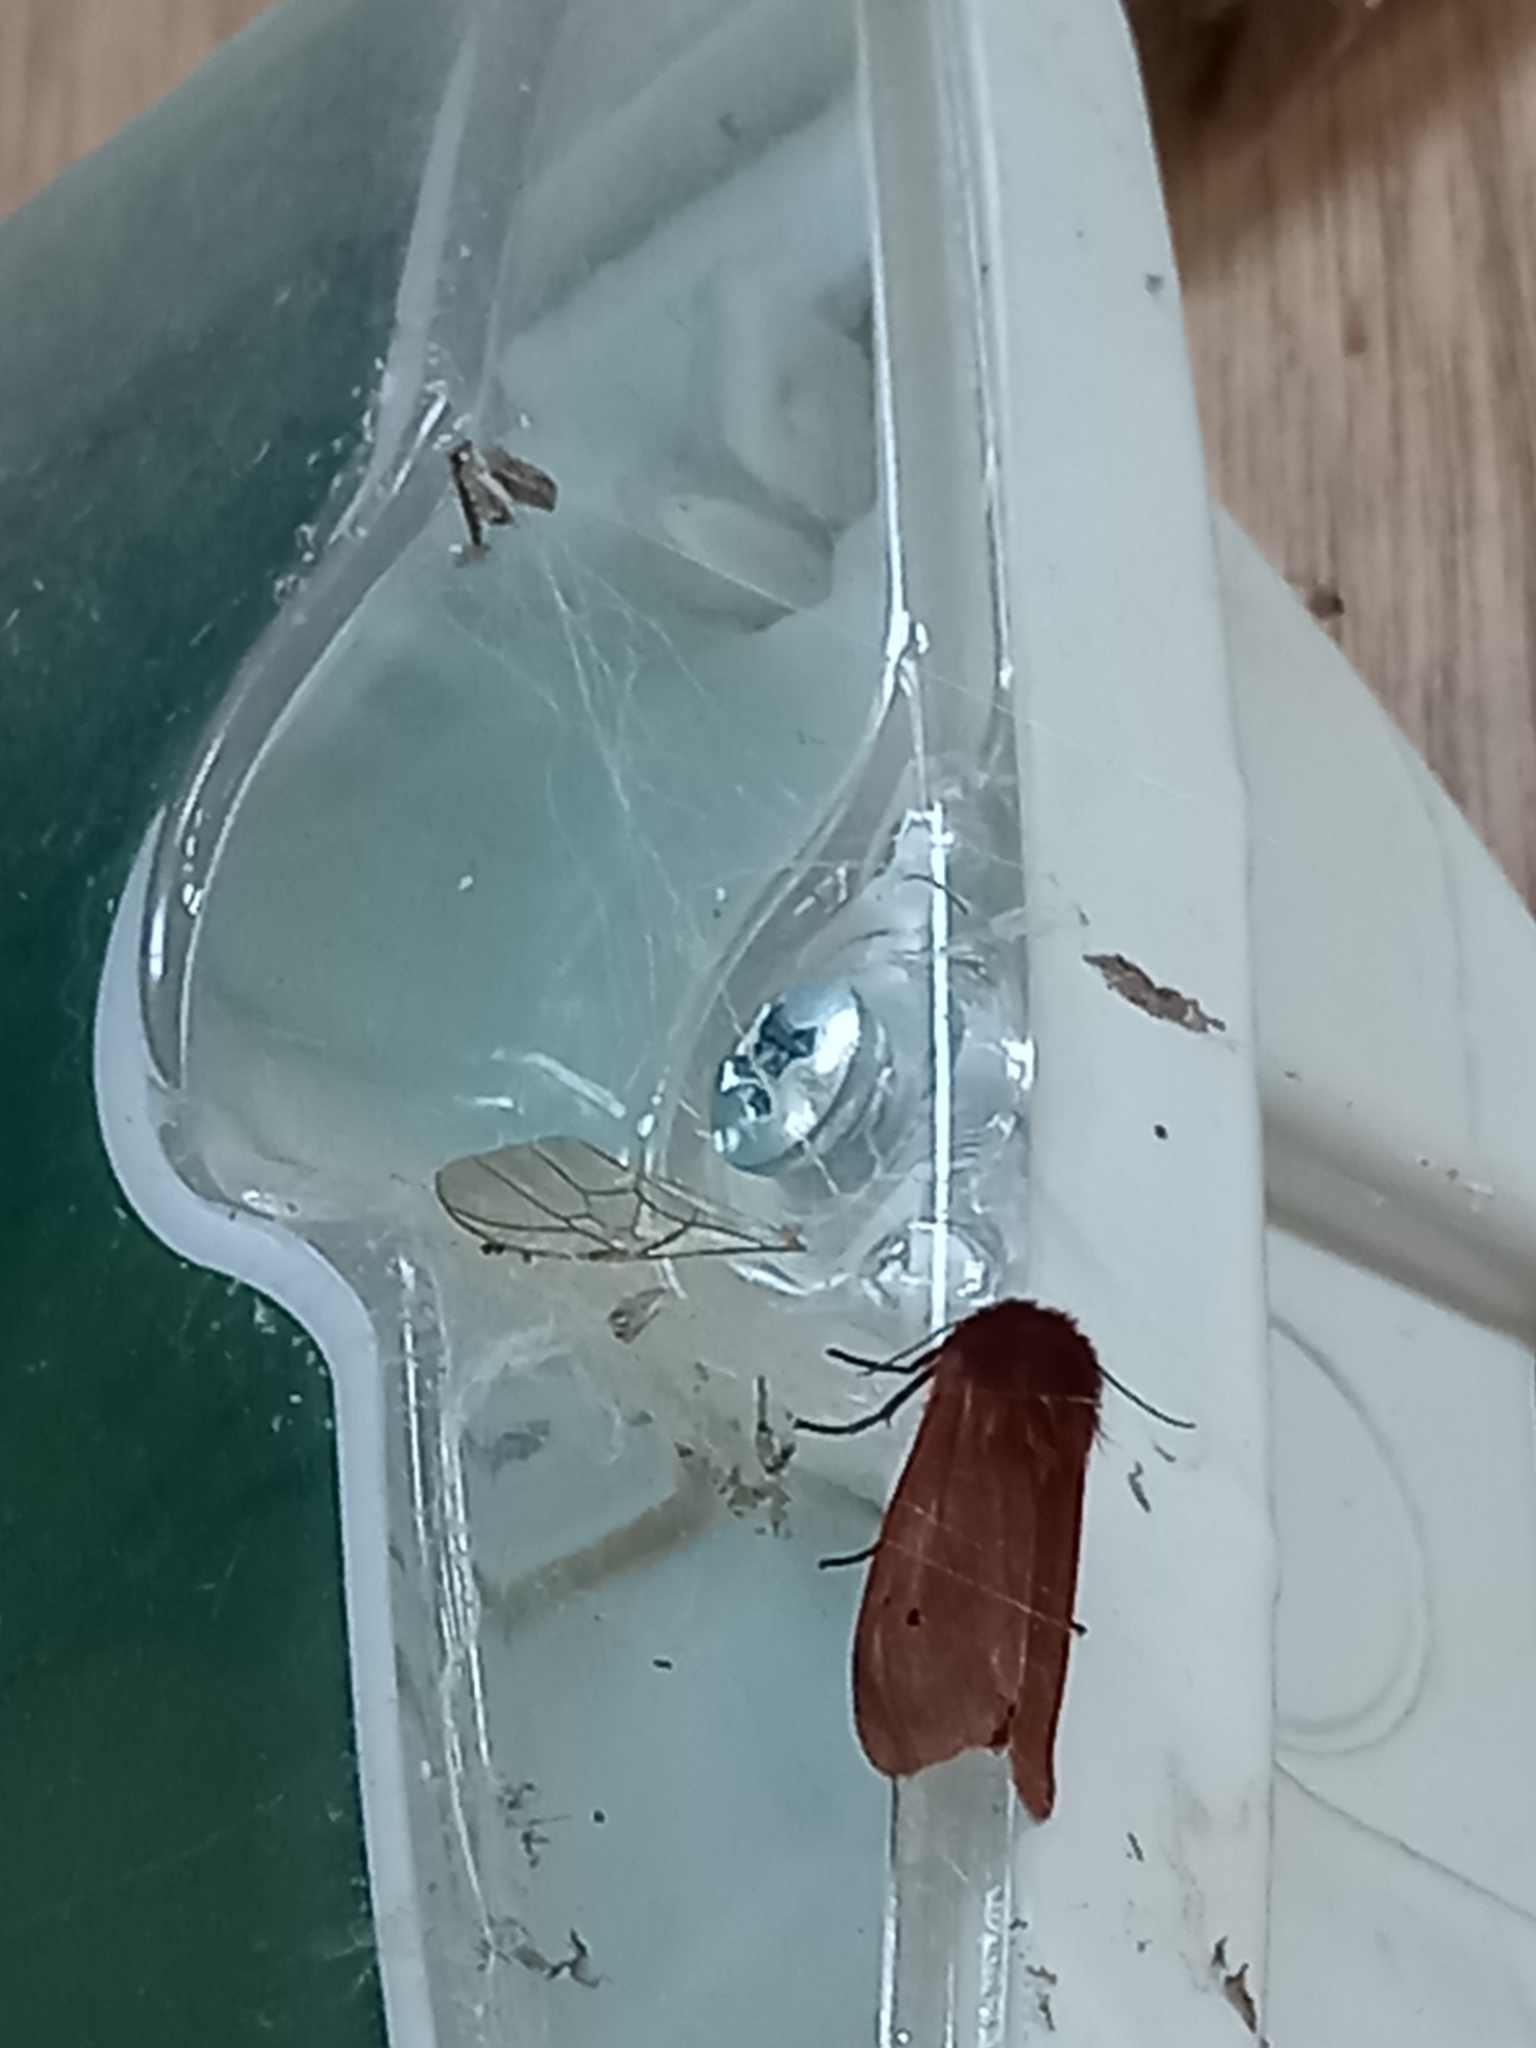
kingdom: Animalia
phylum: Arthropoda
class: Insecta
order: Lepidoptera
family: Erebidae
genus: Phragmatobia
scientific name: Phragmatobia fuliginosa
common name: Ruby tiger
